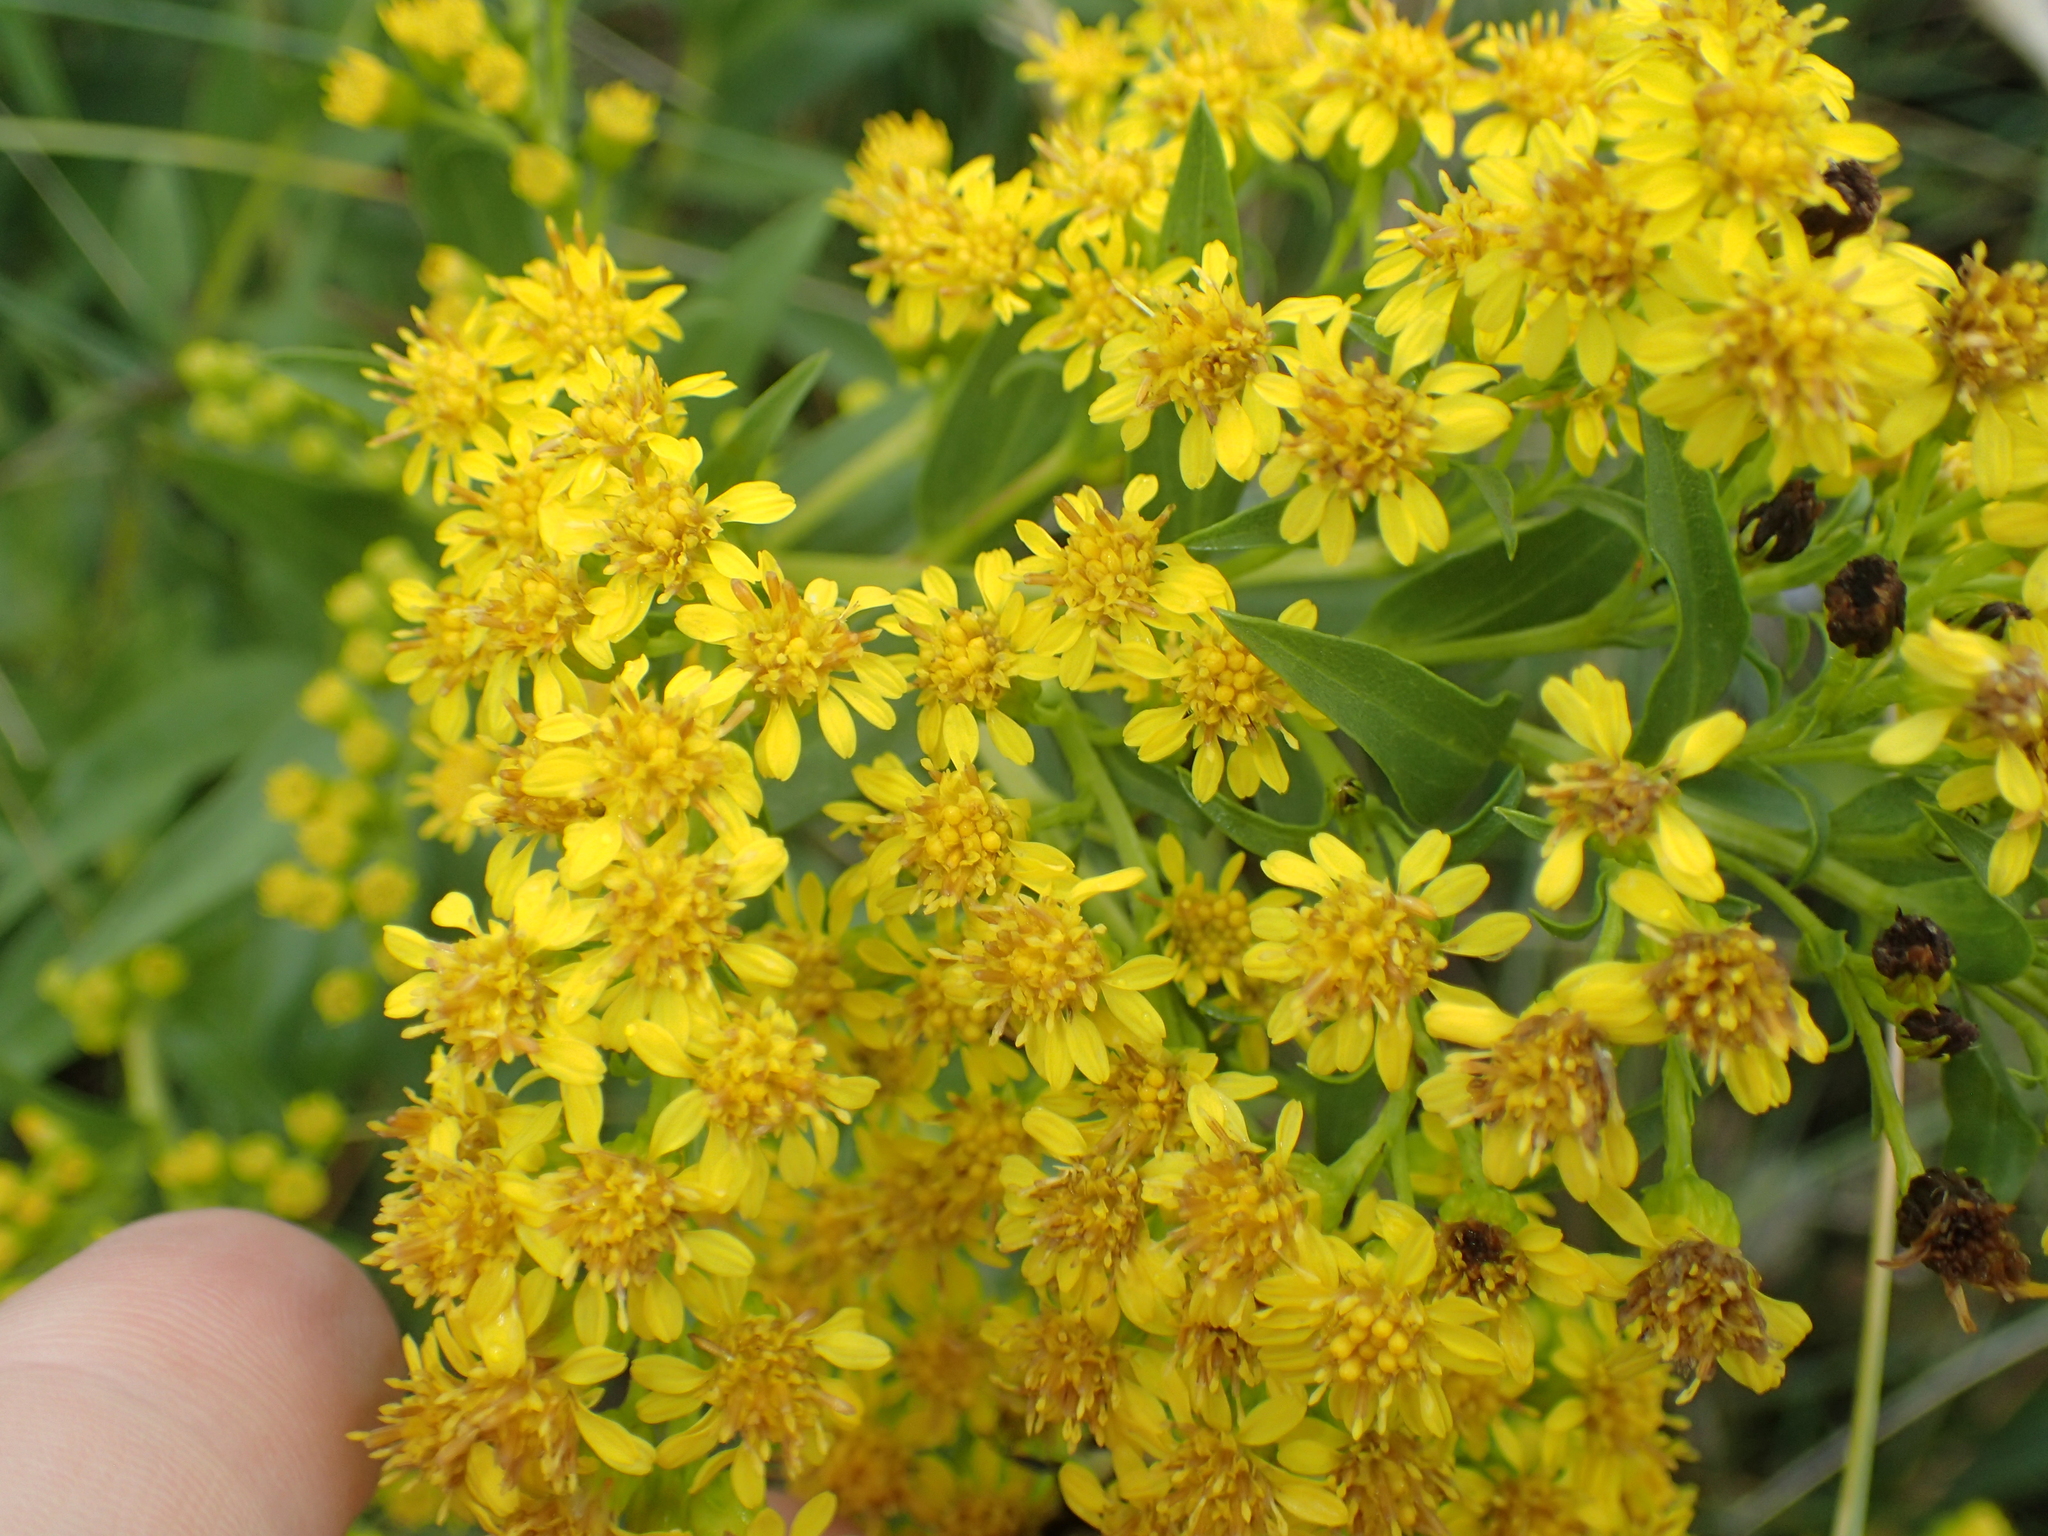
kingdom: Plantae
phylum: Tracheophyta
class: Magnoliopsida
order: Asterales
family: Asteraceae
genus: Solidago
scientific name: Solidago sempervirens
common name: Salt-marsh goldenrod
